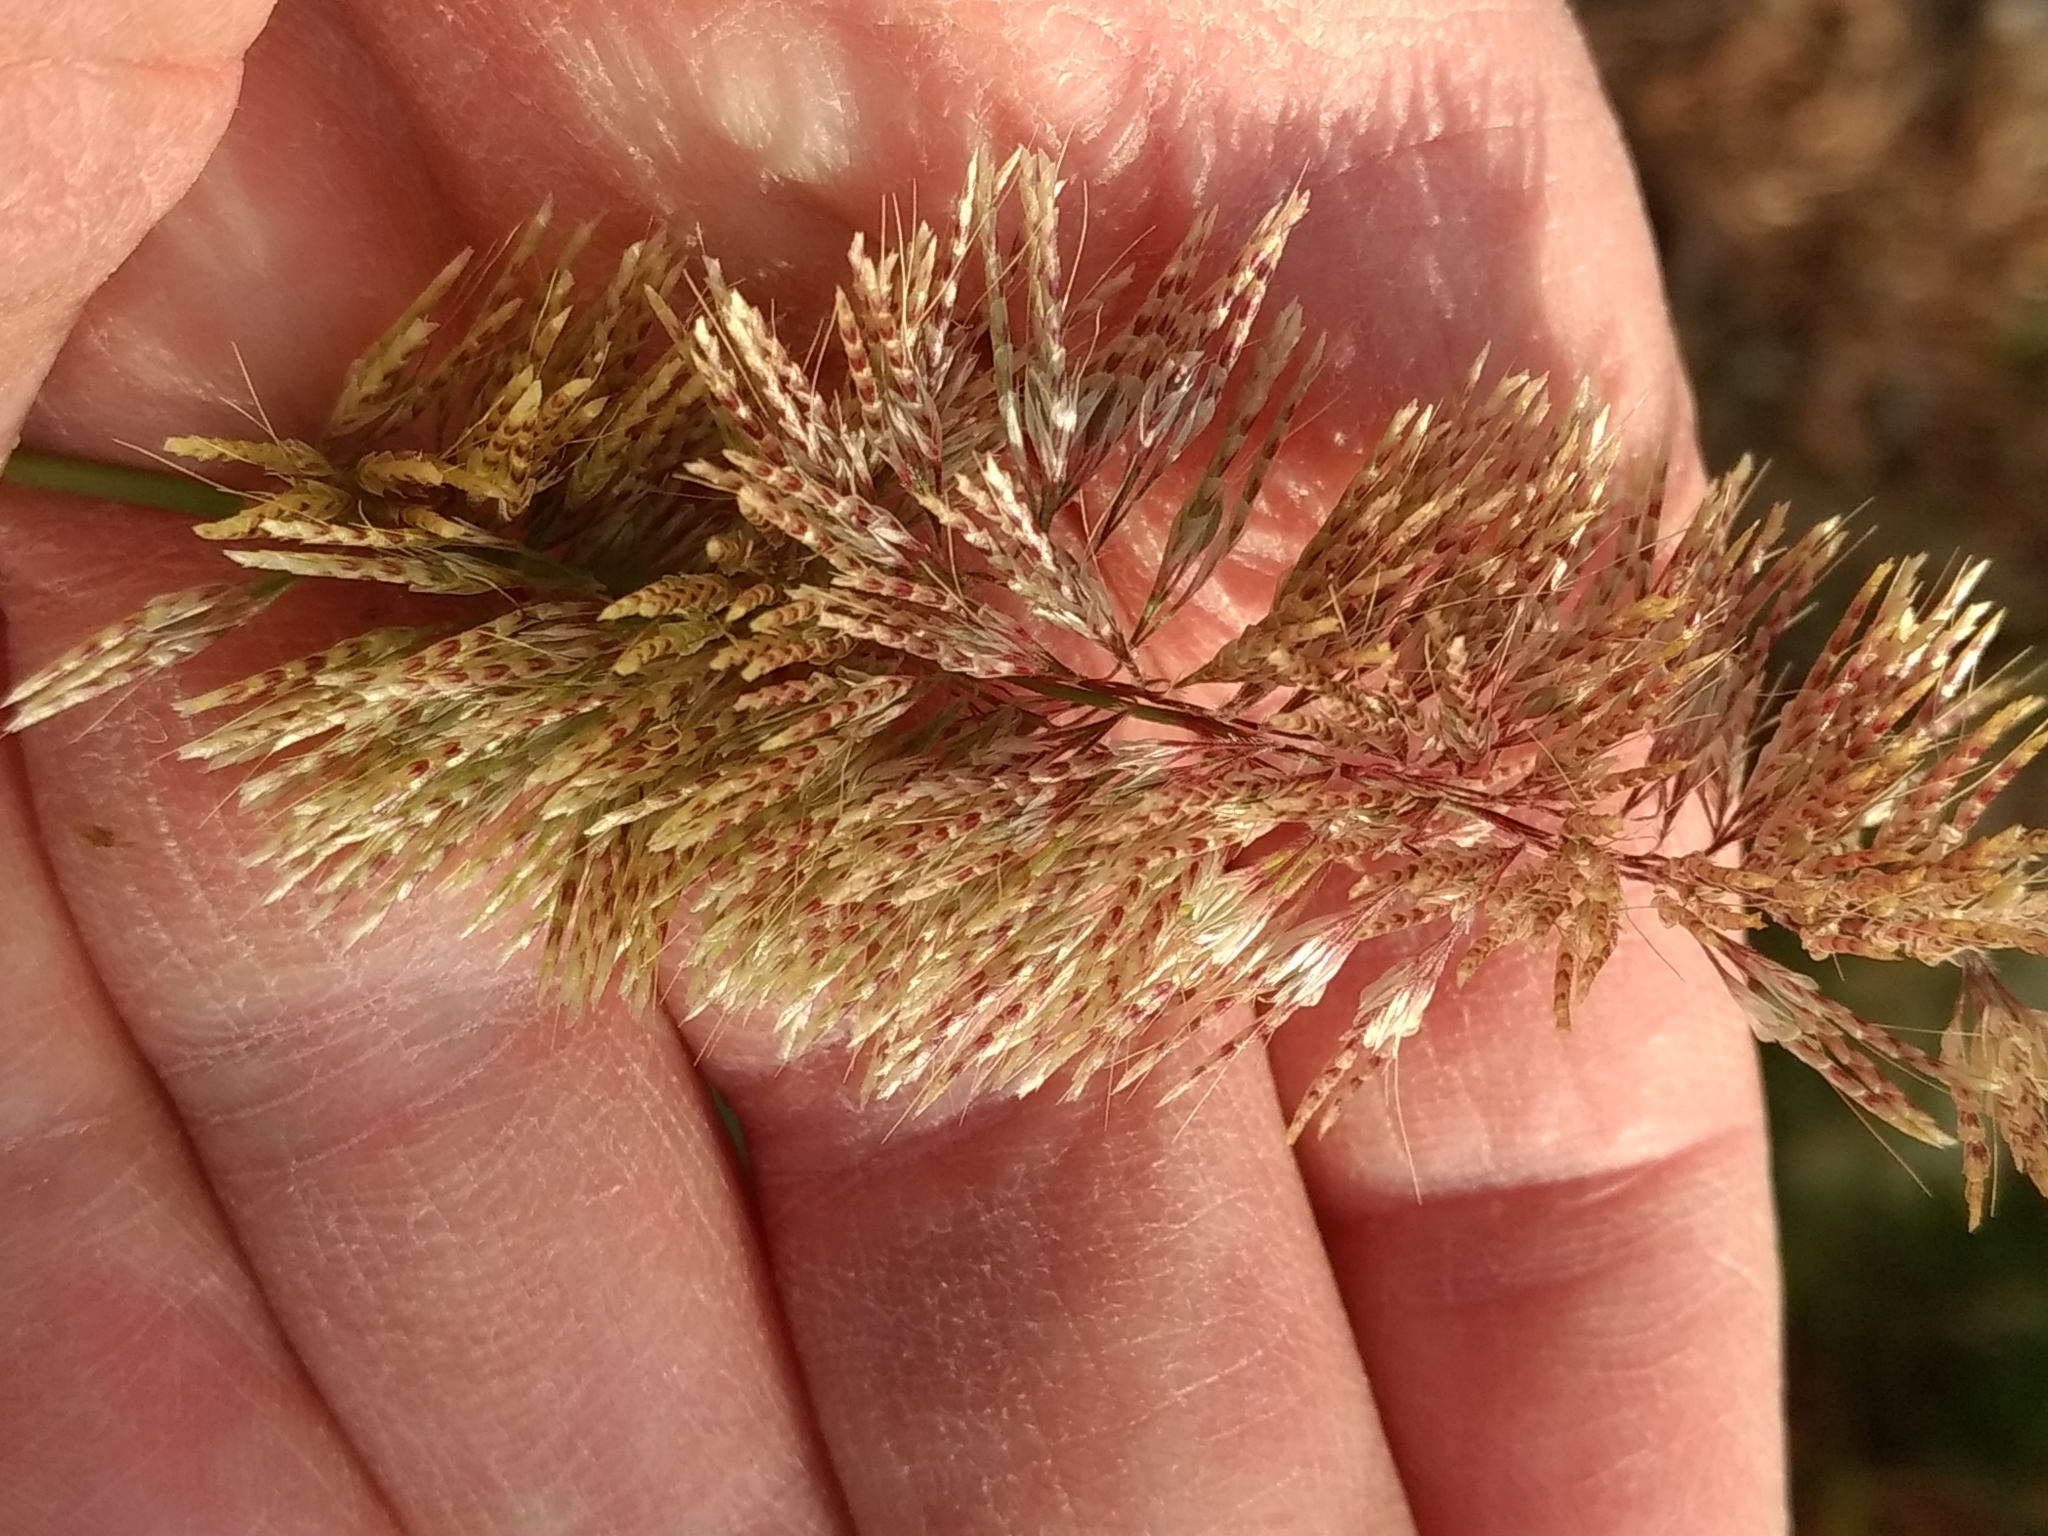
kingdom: Plantae
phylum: Tracheophyta
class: Liliopsida
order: Poales
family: Poaceae
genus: Lamarckia
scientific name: Lamarckia aurea
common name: Golden dog's-tail
